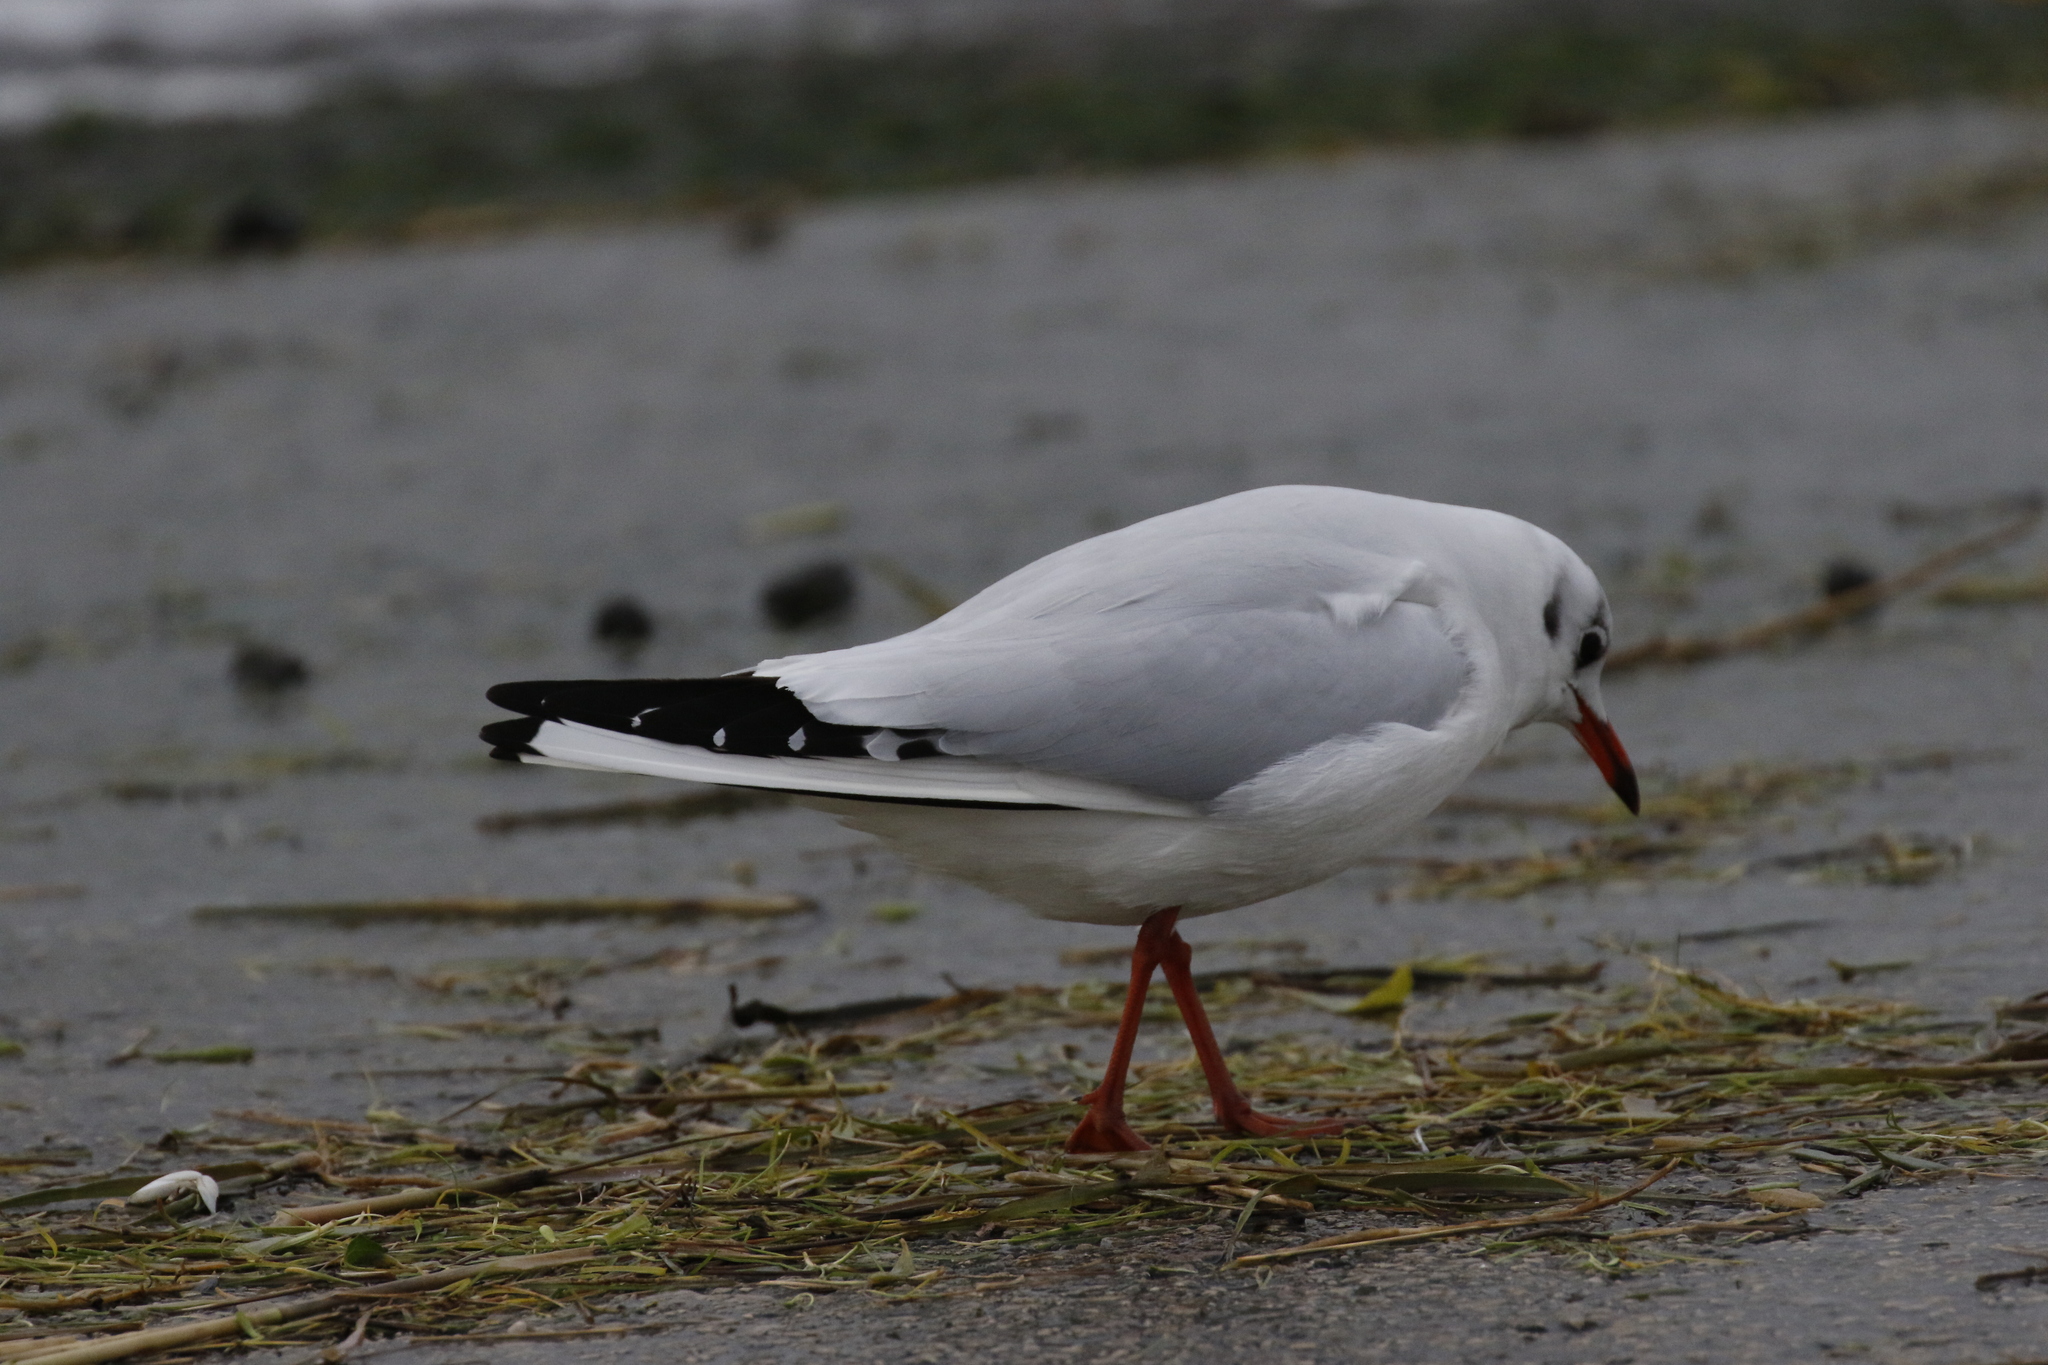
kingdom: Animalia
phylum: Chordata
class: Aves
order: Charadriiformes
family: Laridae
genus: Chroicocephalus
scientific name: Chroicocephalus ridibundus
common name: Black-headed gull
